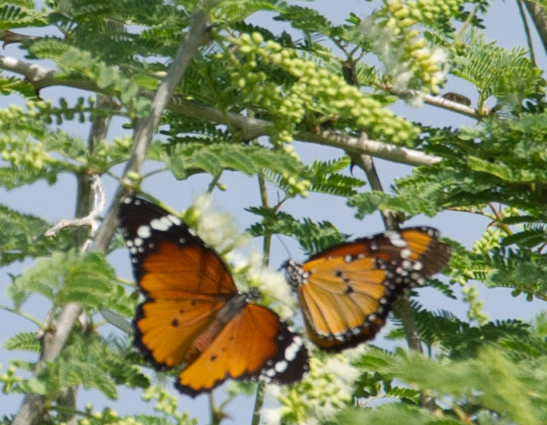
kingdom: Animalia
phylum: Arthropoda
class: Insecta
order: Lepidoptera
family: Nymphalidae
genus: Danaus
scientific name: Danaus chrysippus
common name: Plain tiger
